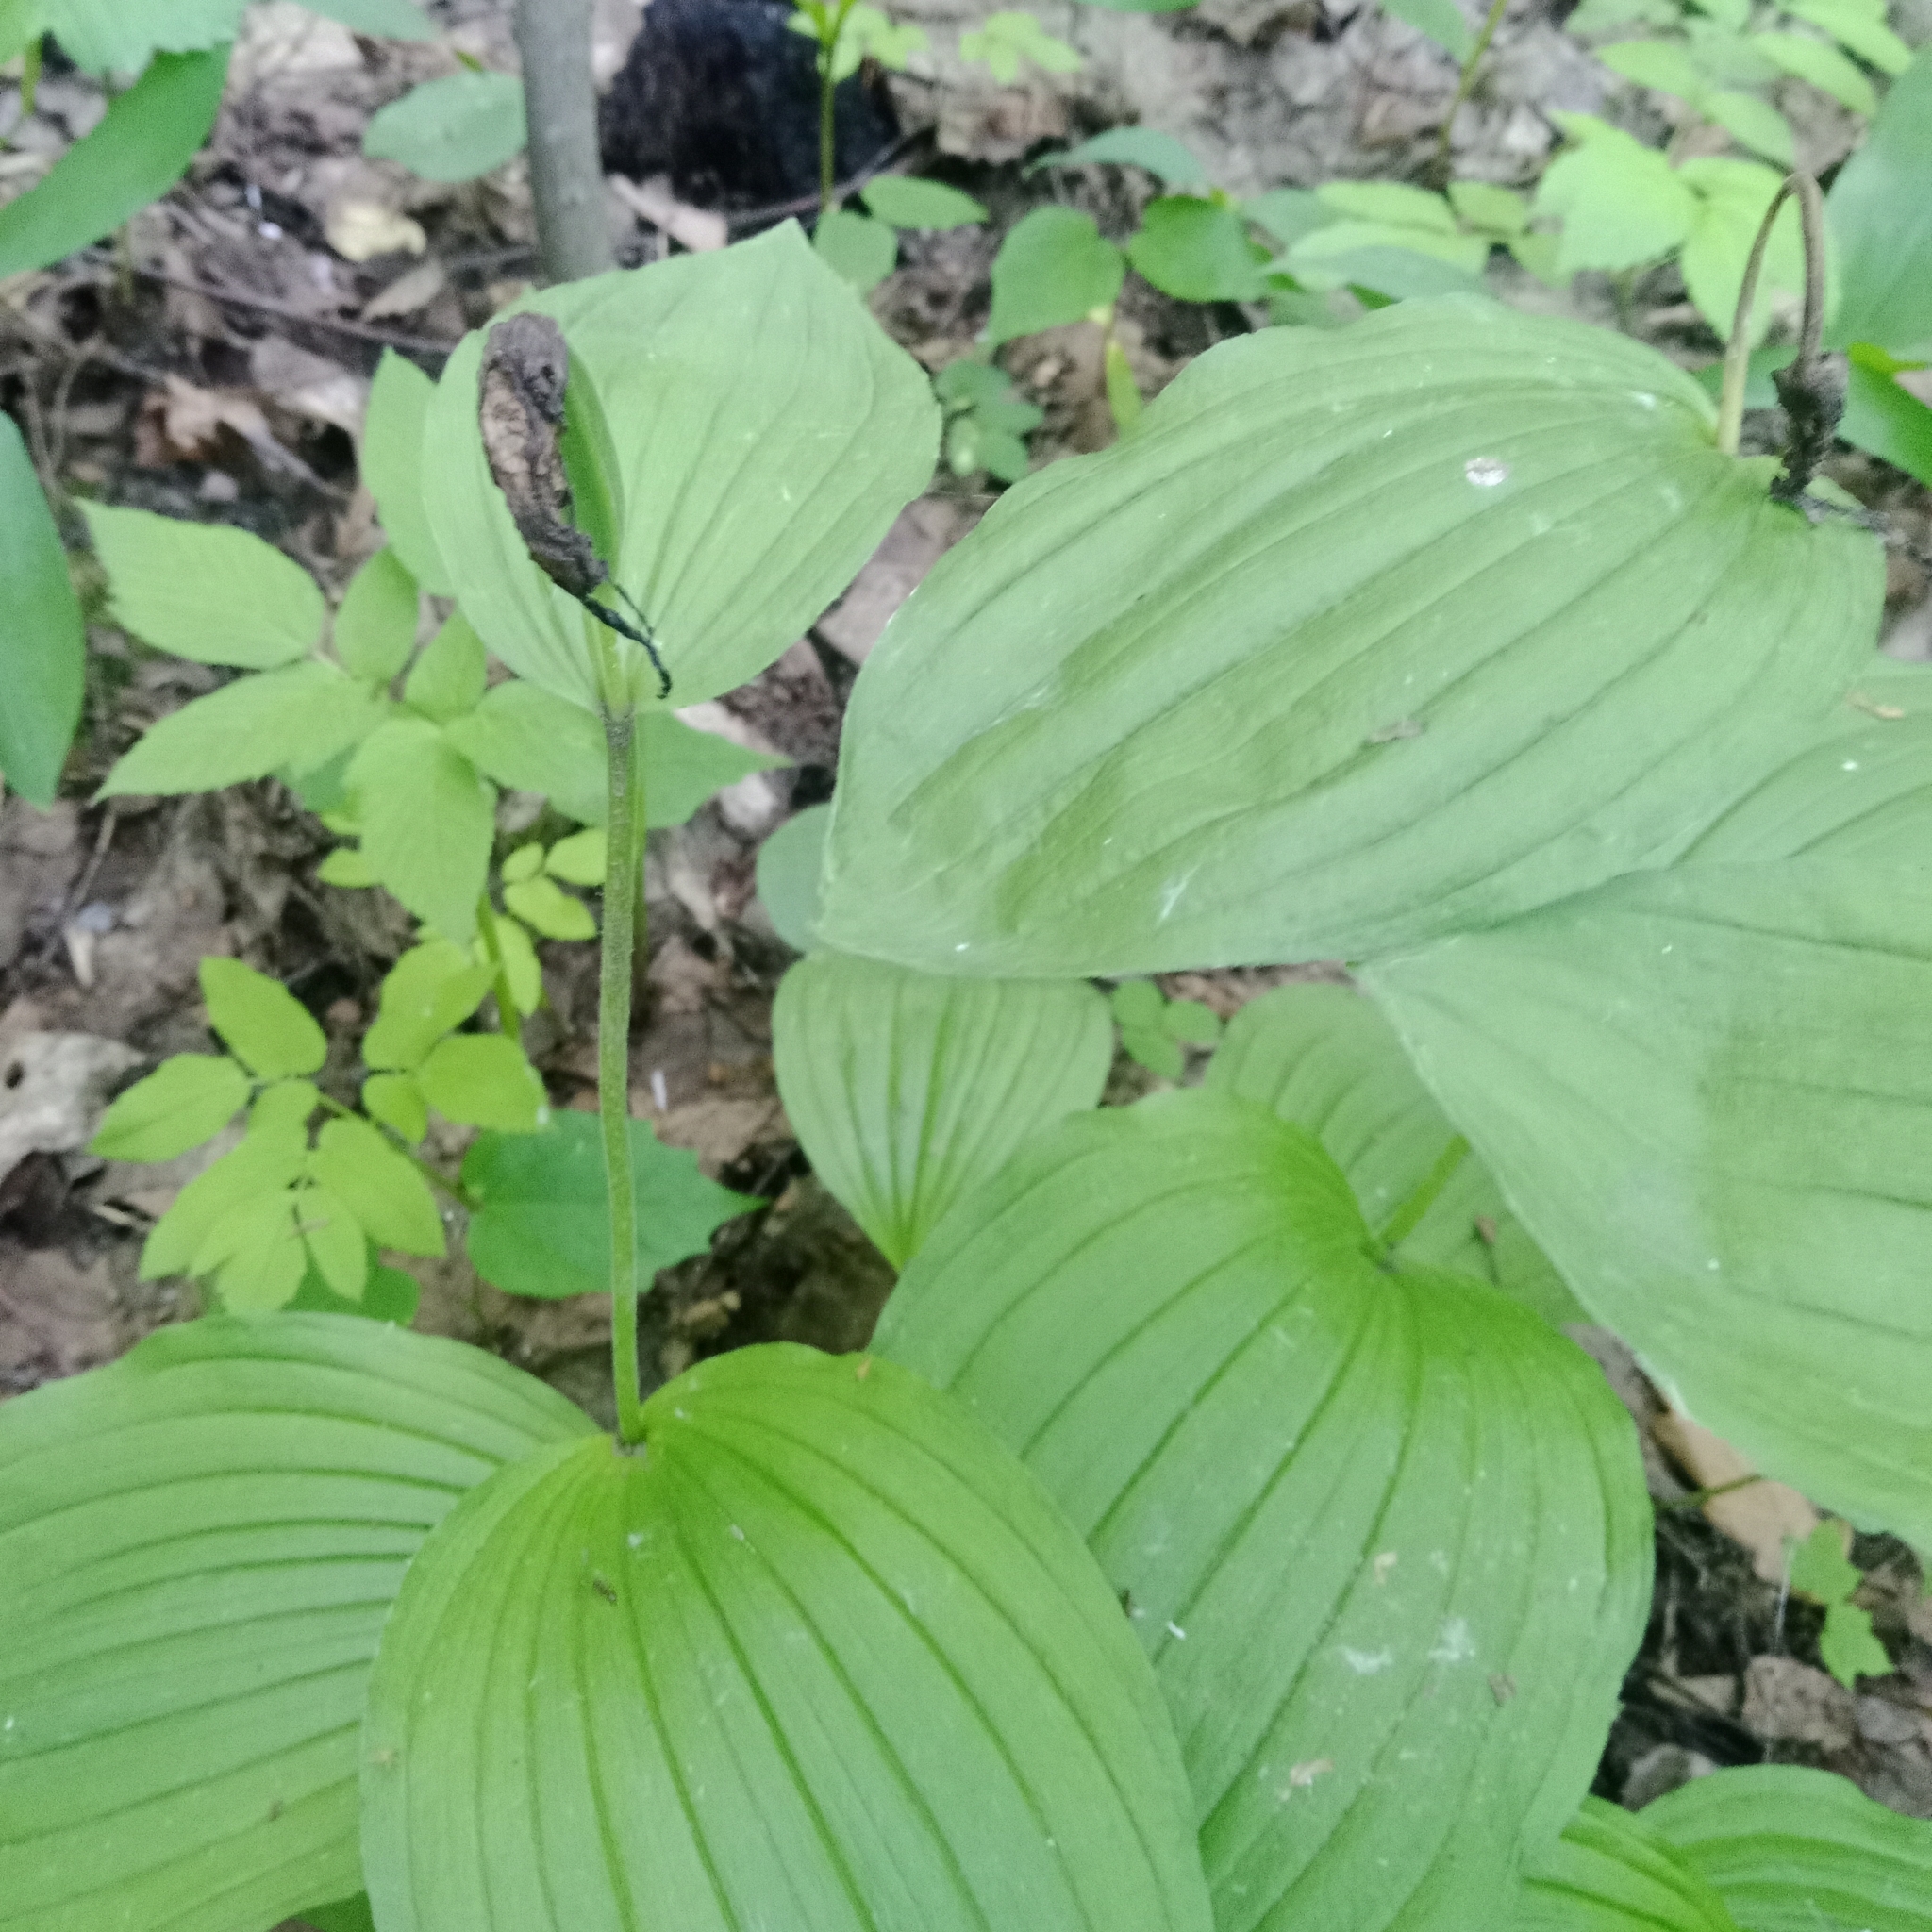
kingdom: Plantae
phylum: Tracheophyta
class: Liliopsida
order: Asparagales
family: Orchidaceae
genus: Cypripedium
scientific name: Cypripedium calceolus
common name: Lady's-slipper
